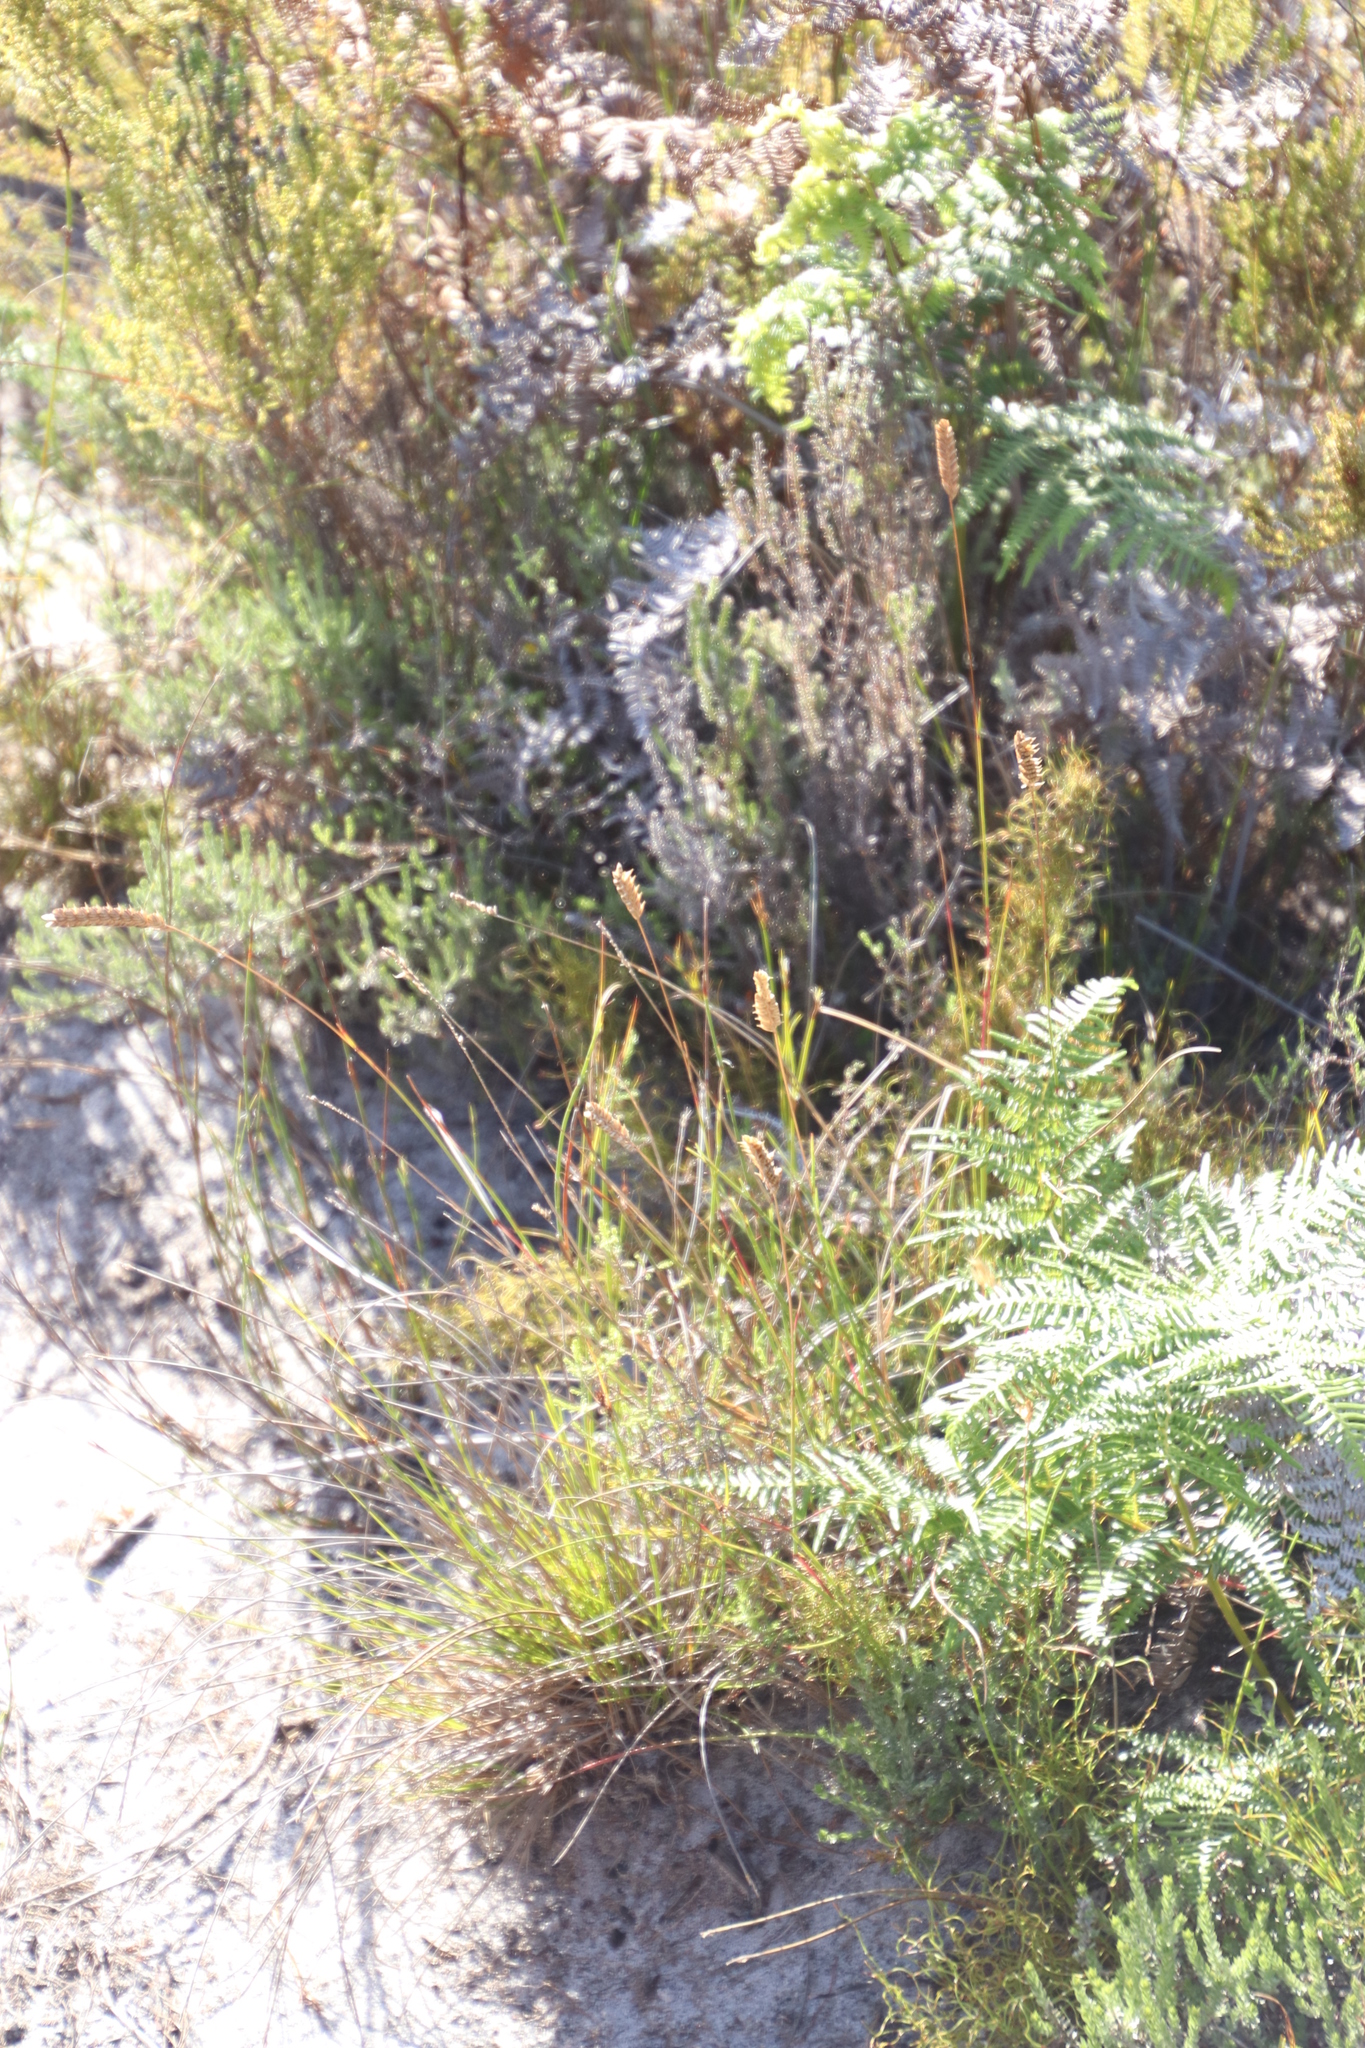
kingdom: Plantae
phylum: Tracheophyta
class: Liliopsida
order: Poales
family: Poaceae
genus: Tribolium
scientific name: Tribolium uniolae
